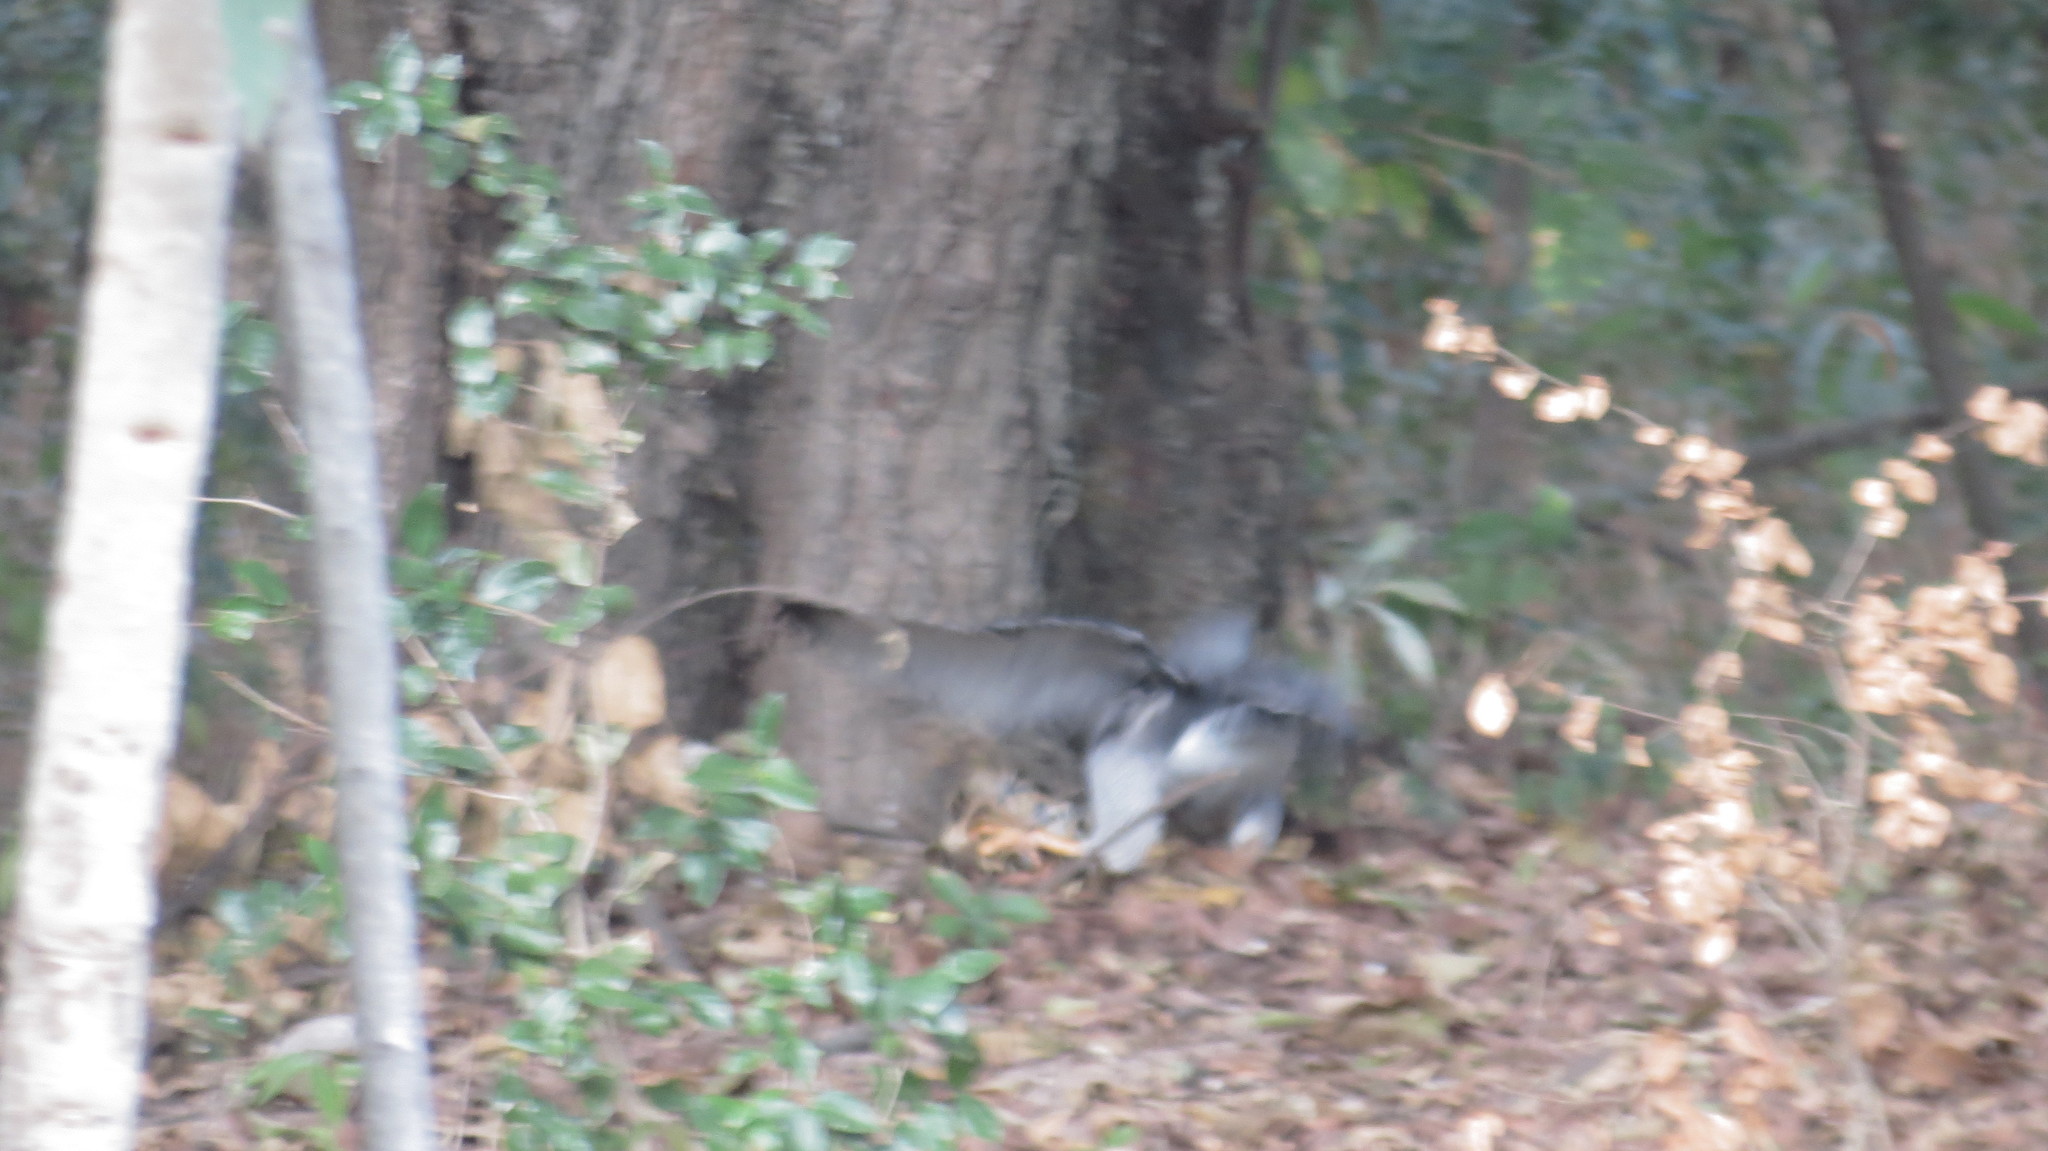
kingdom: Animalia
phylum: Chordata
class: Aves
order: Accipitriformes
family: Accipitridae
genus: Buteo
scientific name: Buteo nitidus
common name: Grey-lined hawk
